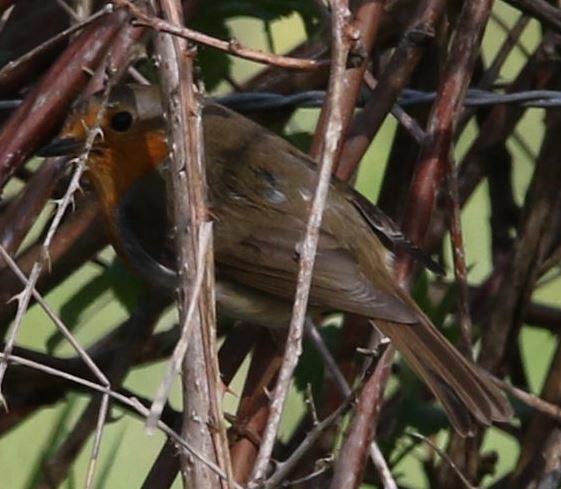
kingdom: Animalia
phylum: Chordata
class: Aves
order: Passeriformes
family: Muscicapidae
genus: Erithacus
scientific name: Erithacus rubecula
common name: European robin
